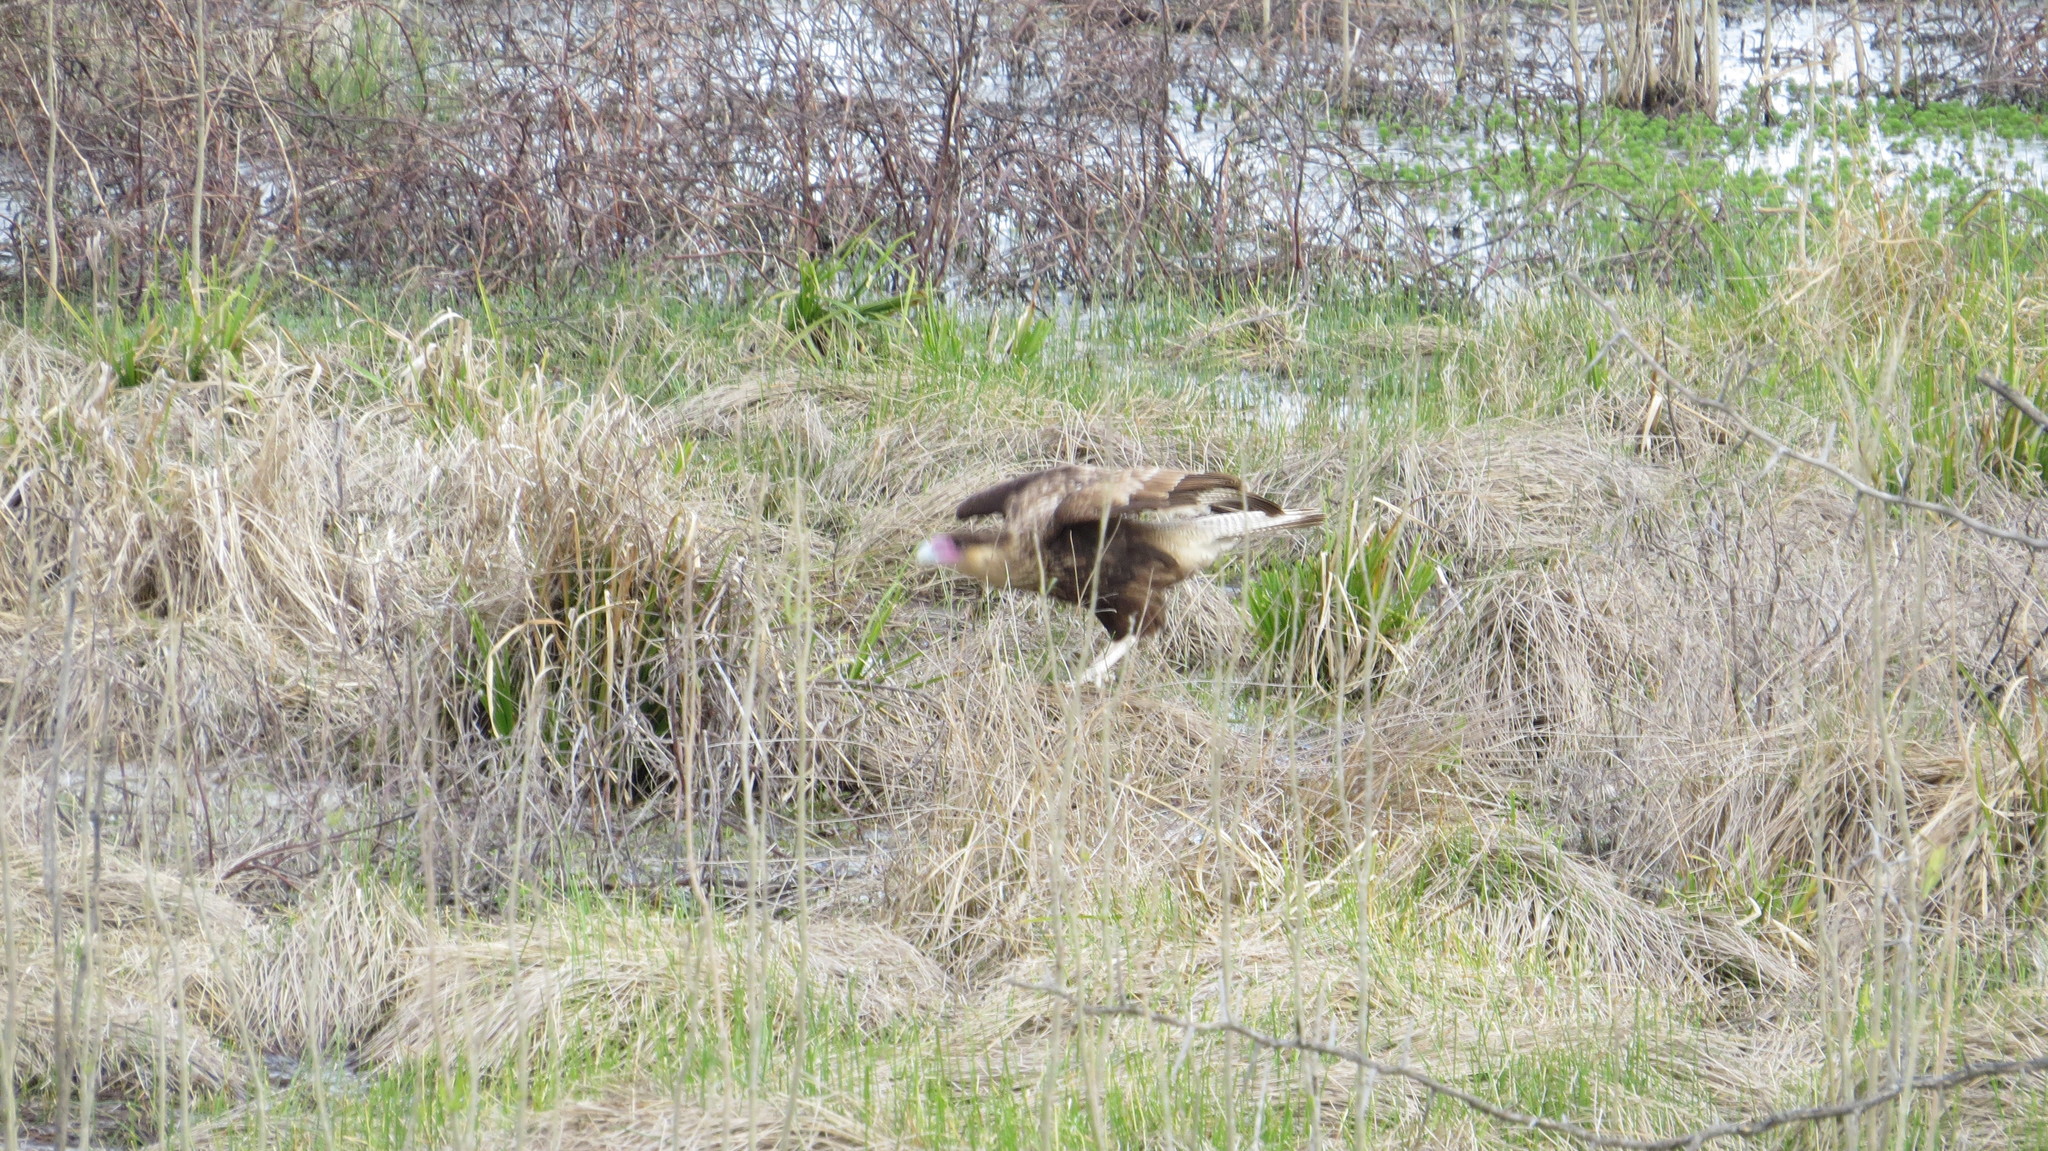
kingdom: Animalia
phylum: Chordata
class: Aves
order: Falconiformes
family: Falconidae
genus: Caracara
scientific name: Caracara plancus
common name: Southern caracara
